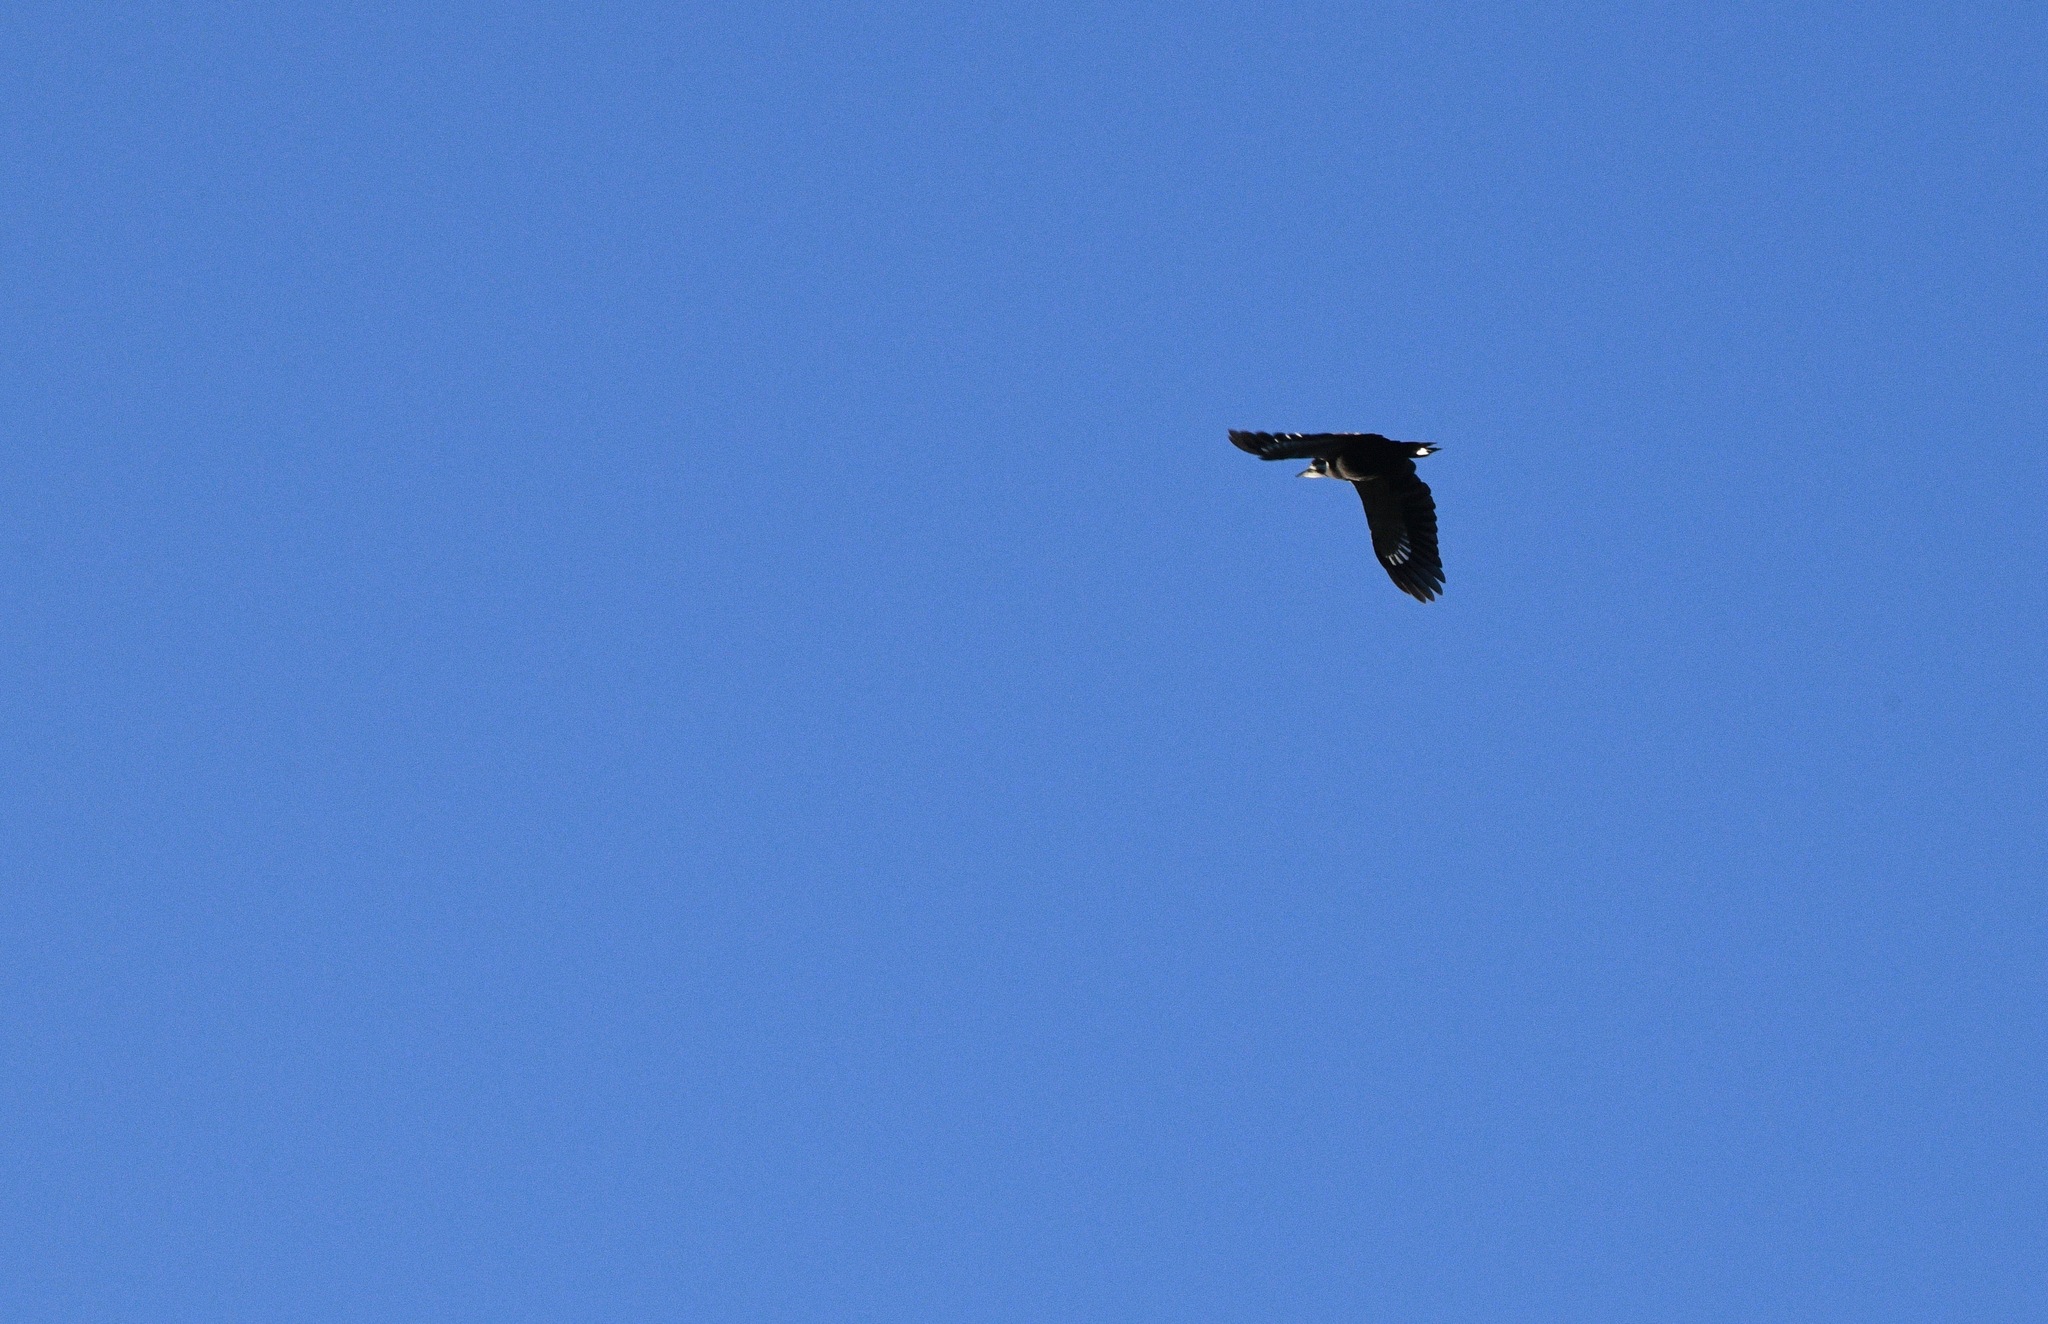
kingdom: Animalia
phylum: Chordata
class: Aves
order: Piciformes
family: Picidae
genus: Dryocopus
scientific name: Dryocopus pileatus
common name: Pileated woodpecker
